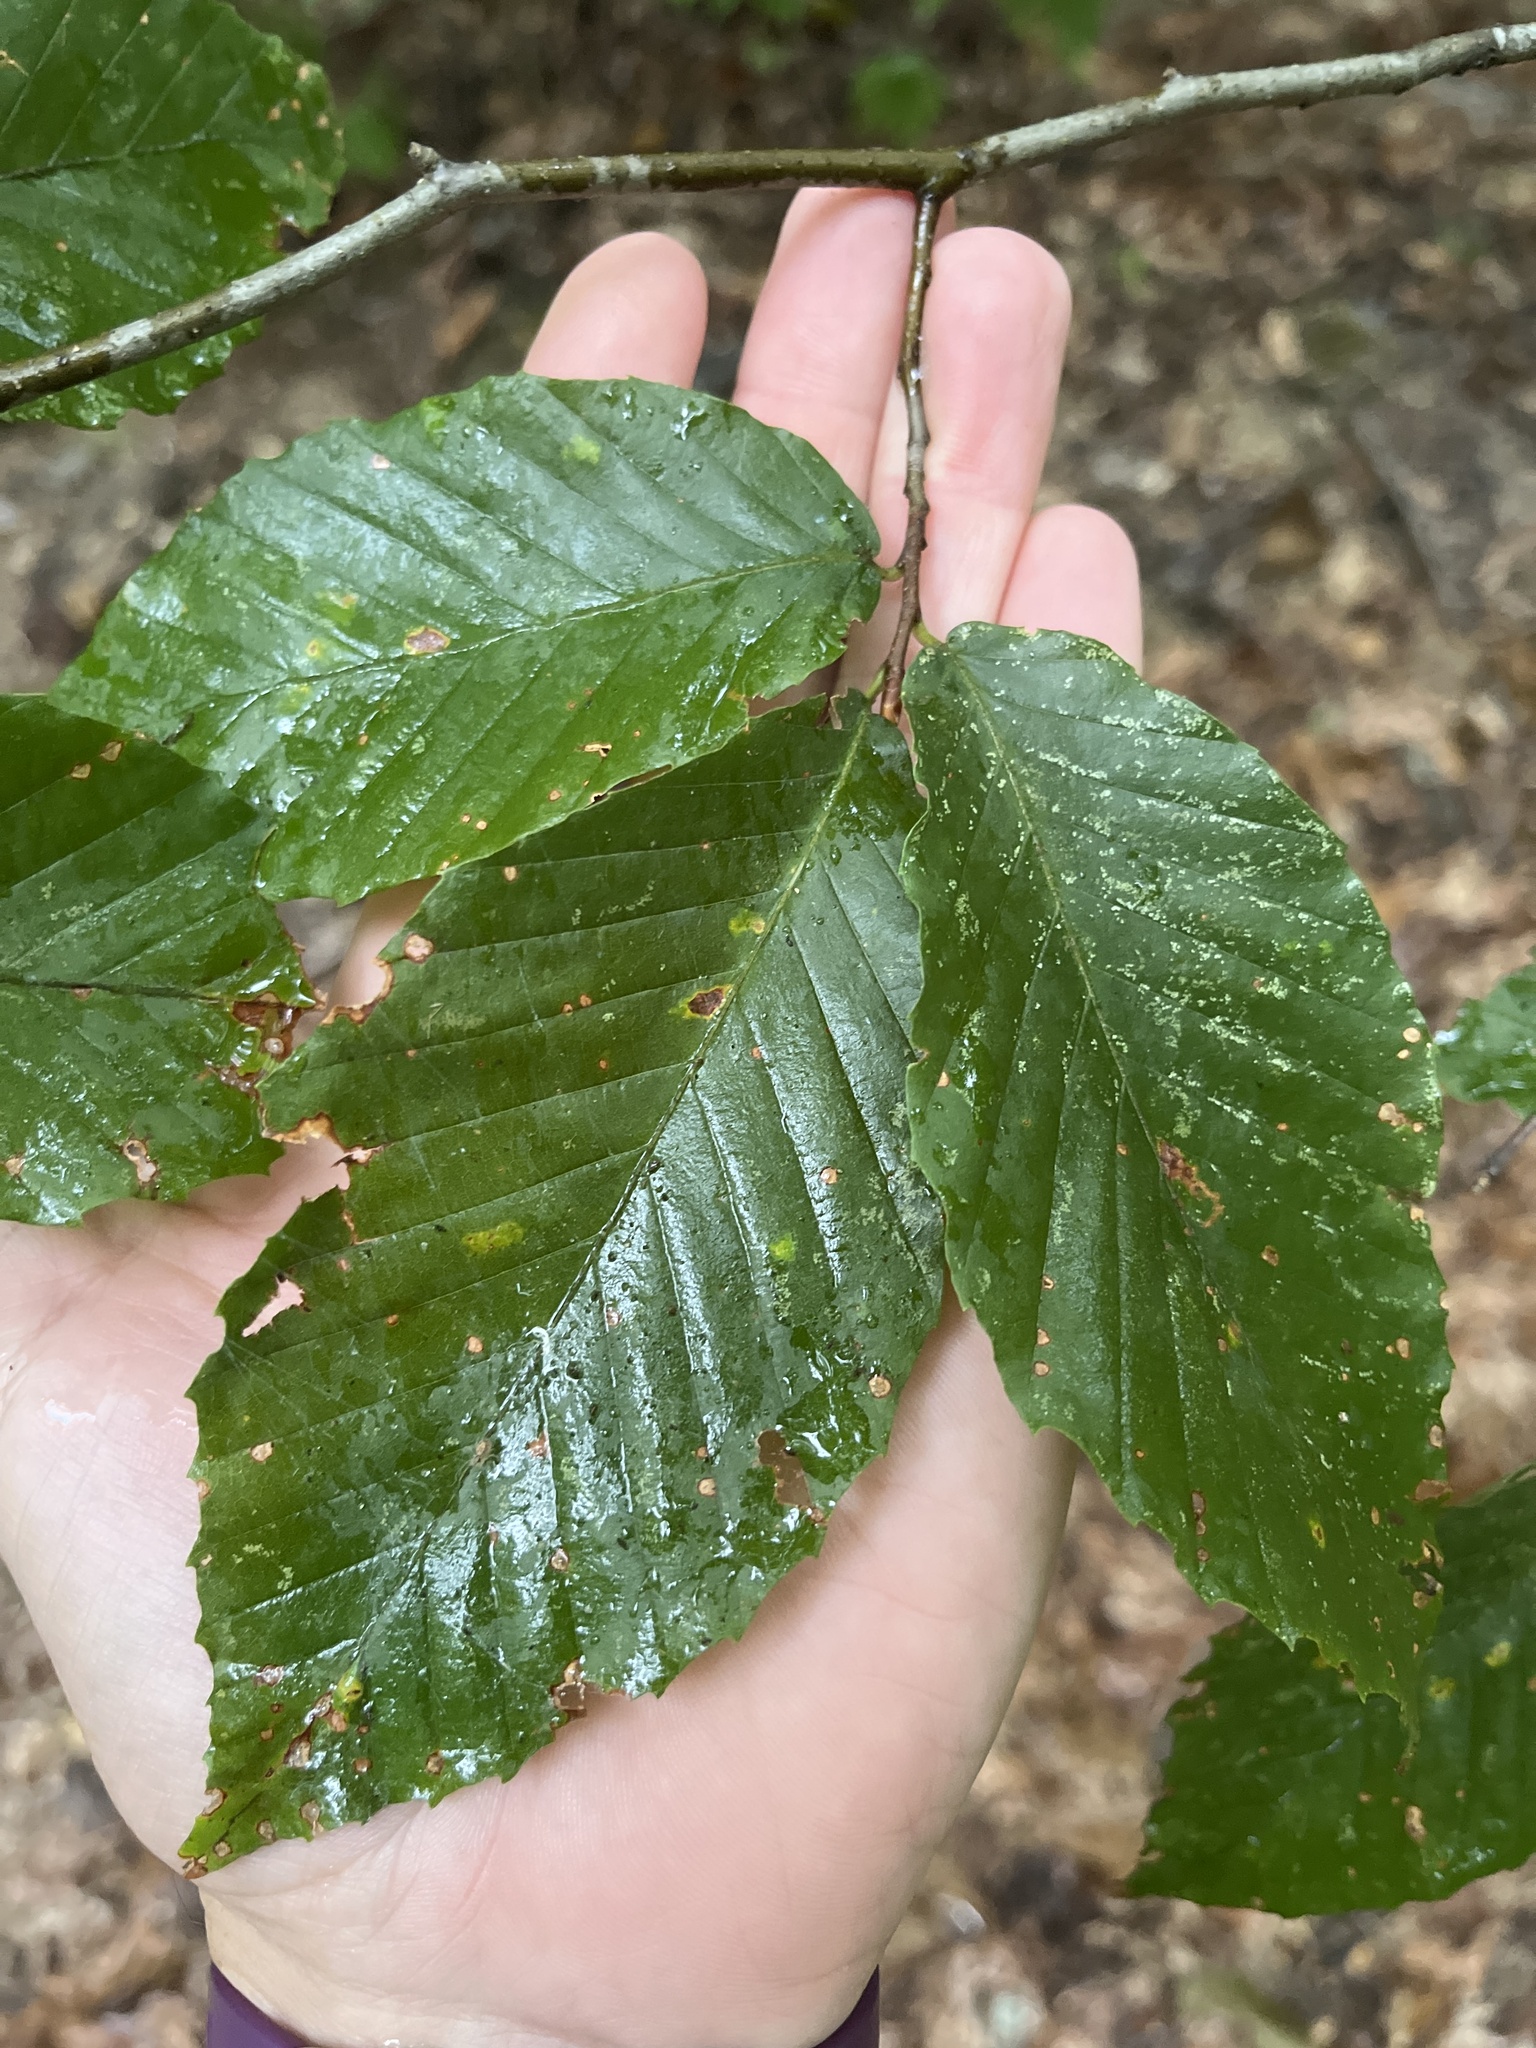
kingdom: Plantae
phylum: Tracheophyta
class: Magnoliopsida
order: Fagales
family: Fagaceae
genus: Fagus
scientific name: Fagus grandifolia
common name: American beech
